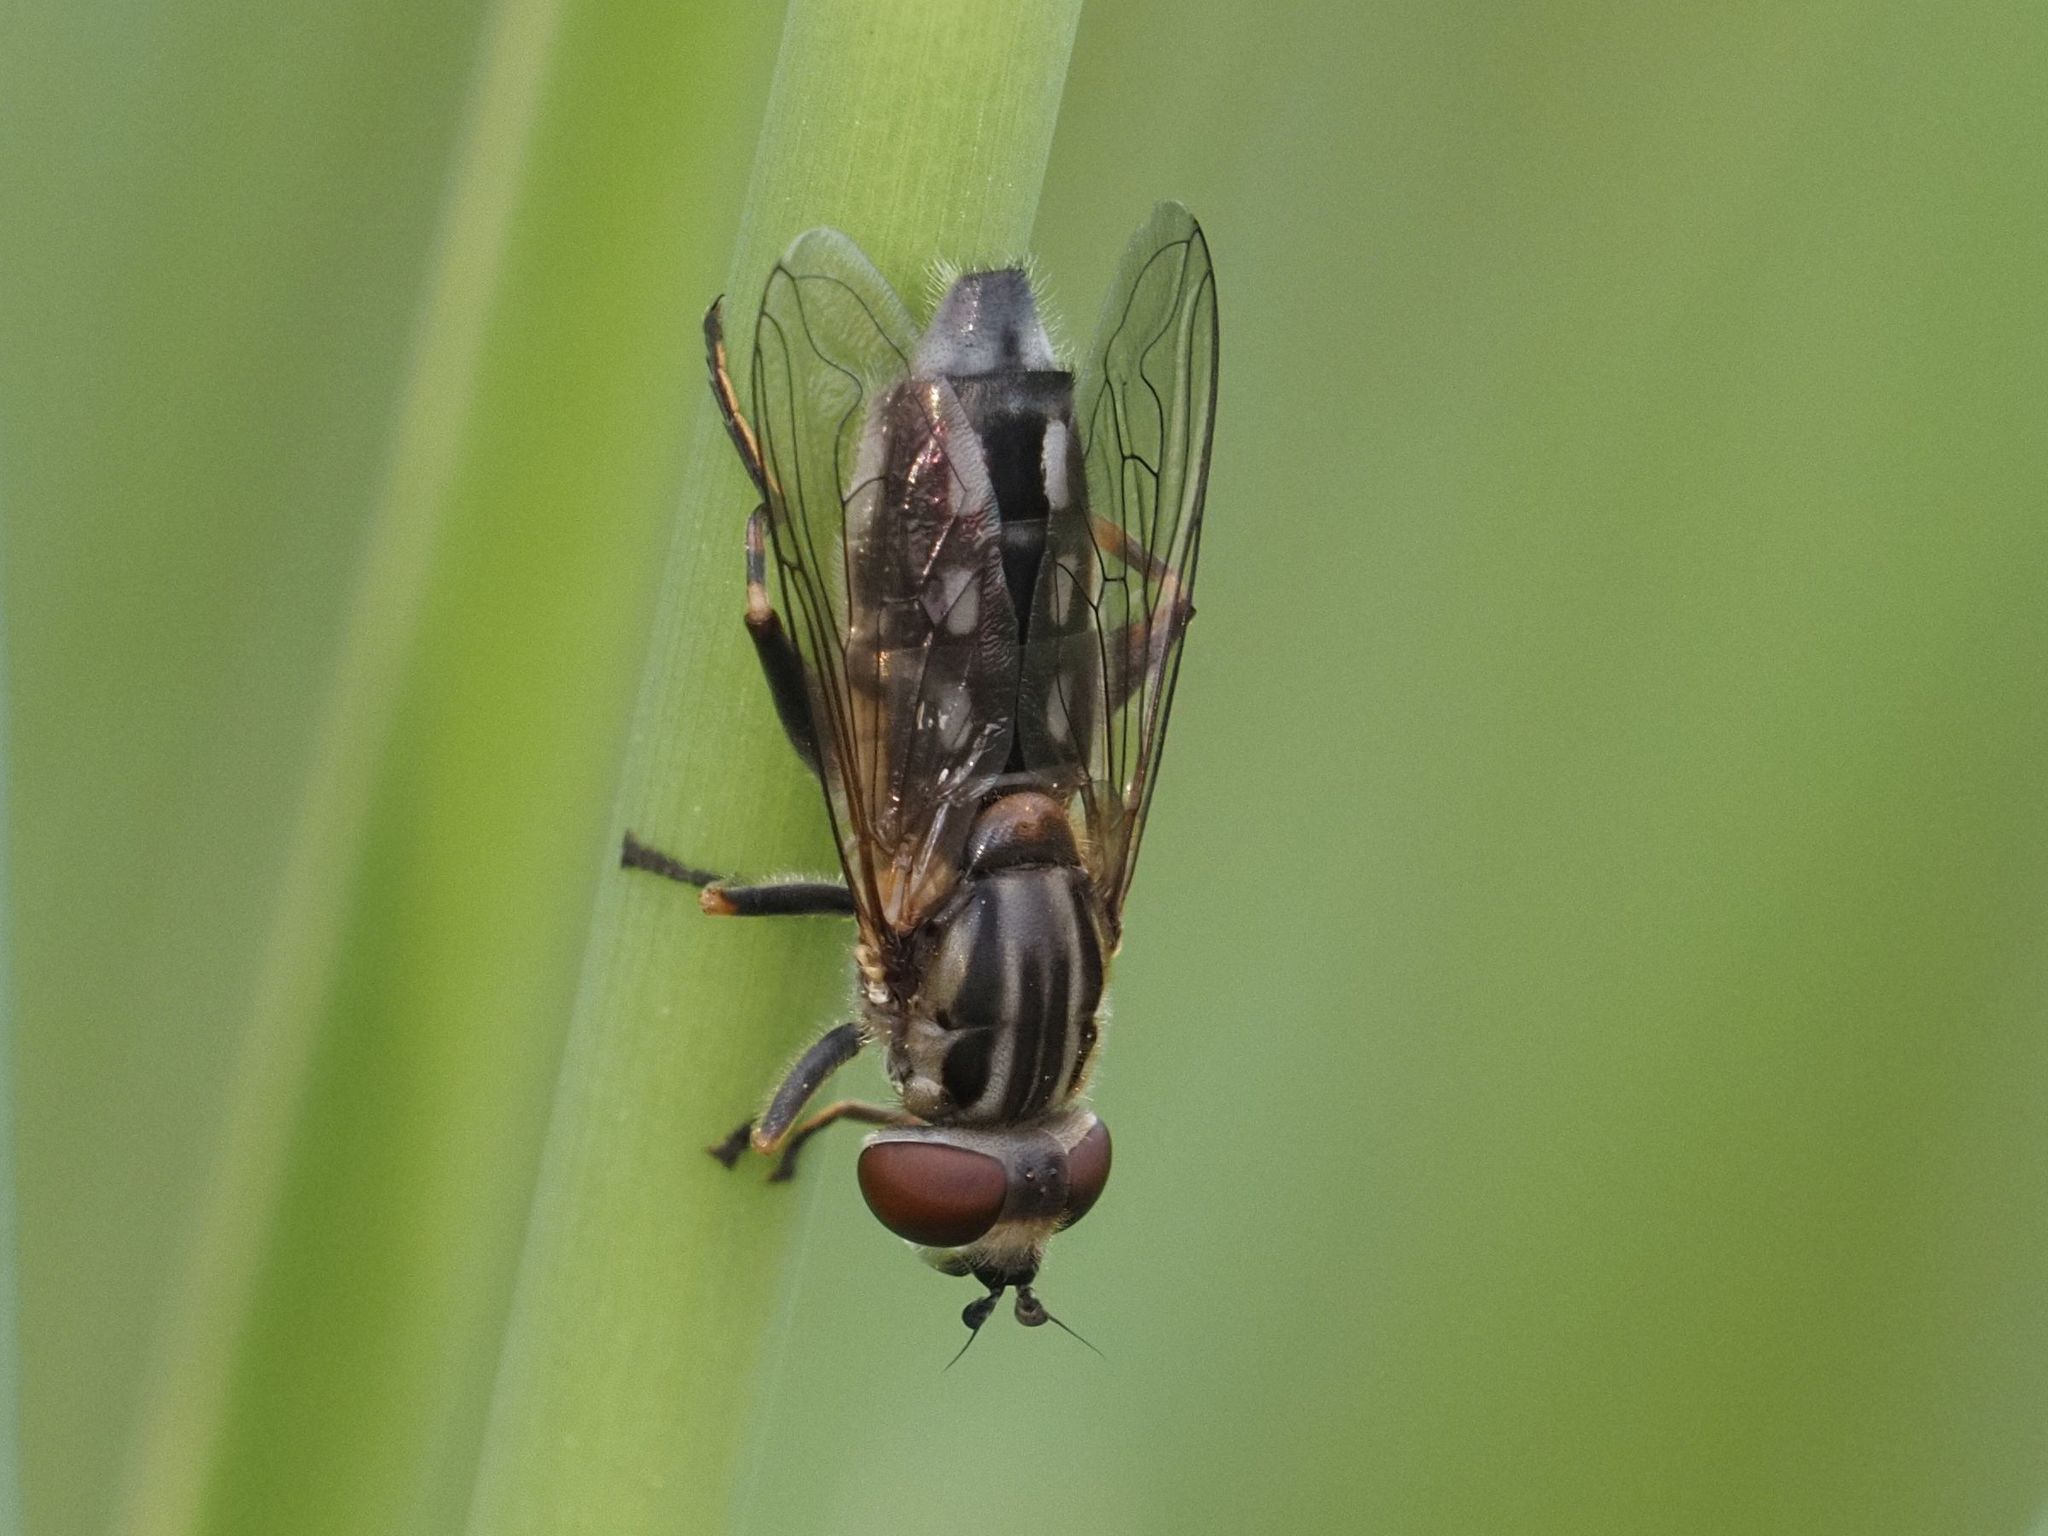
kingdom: Animalia
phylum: Arthropoda
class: Insecta
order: Diptera
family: Syrphidae
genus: Lejops
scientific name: Lejops vittatus
